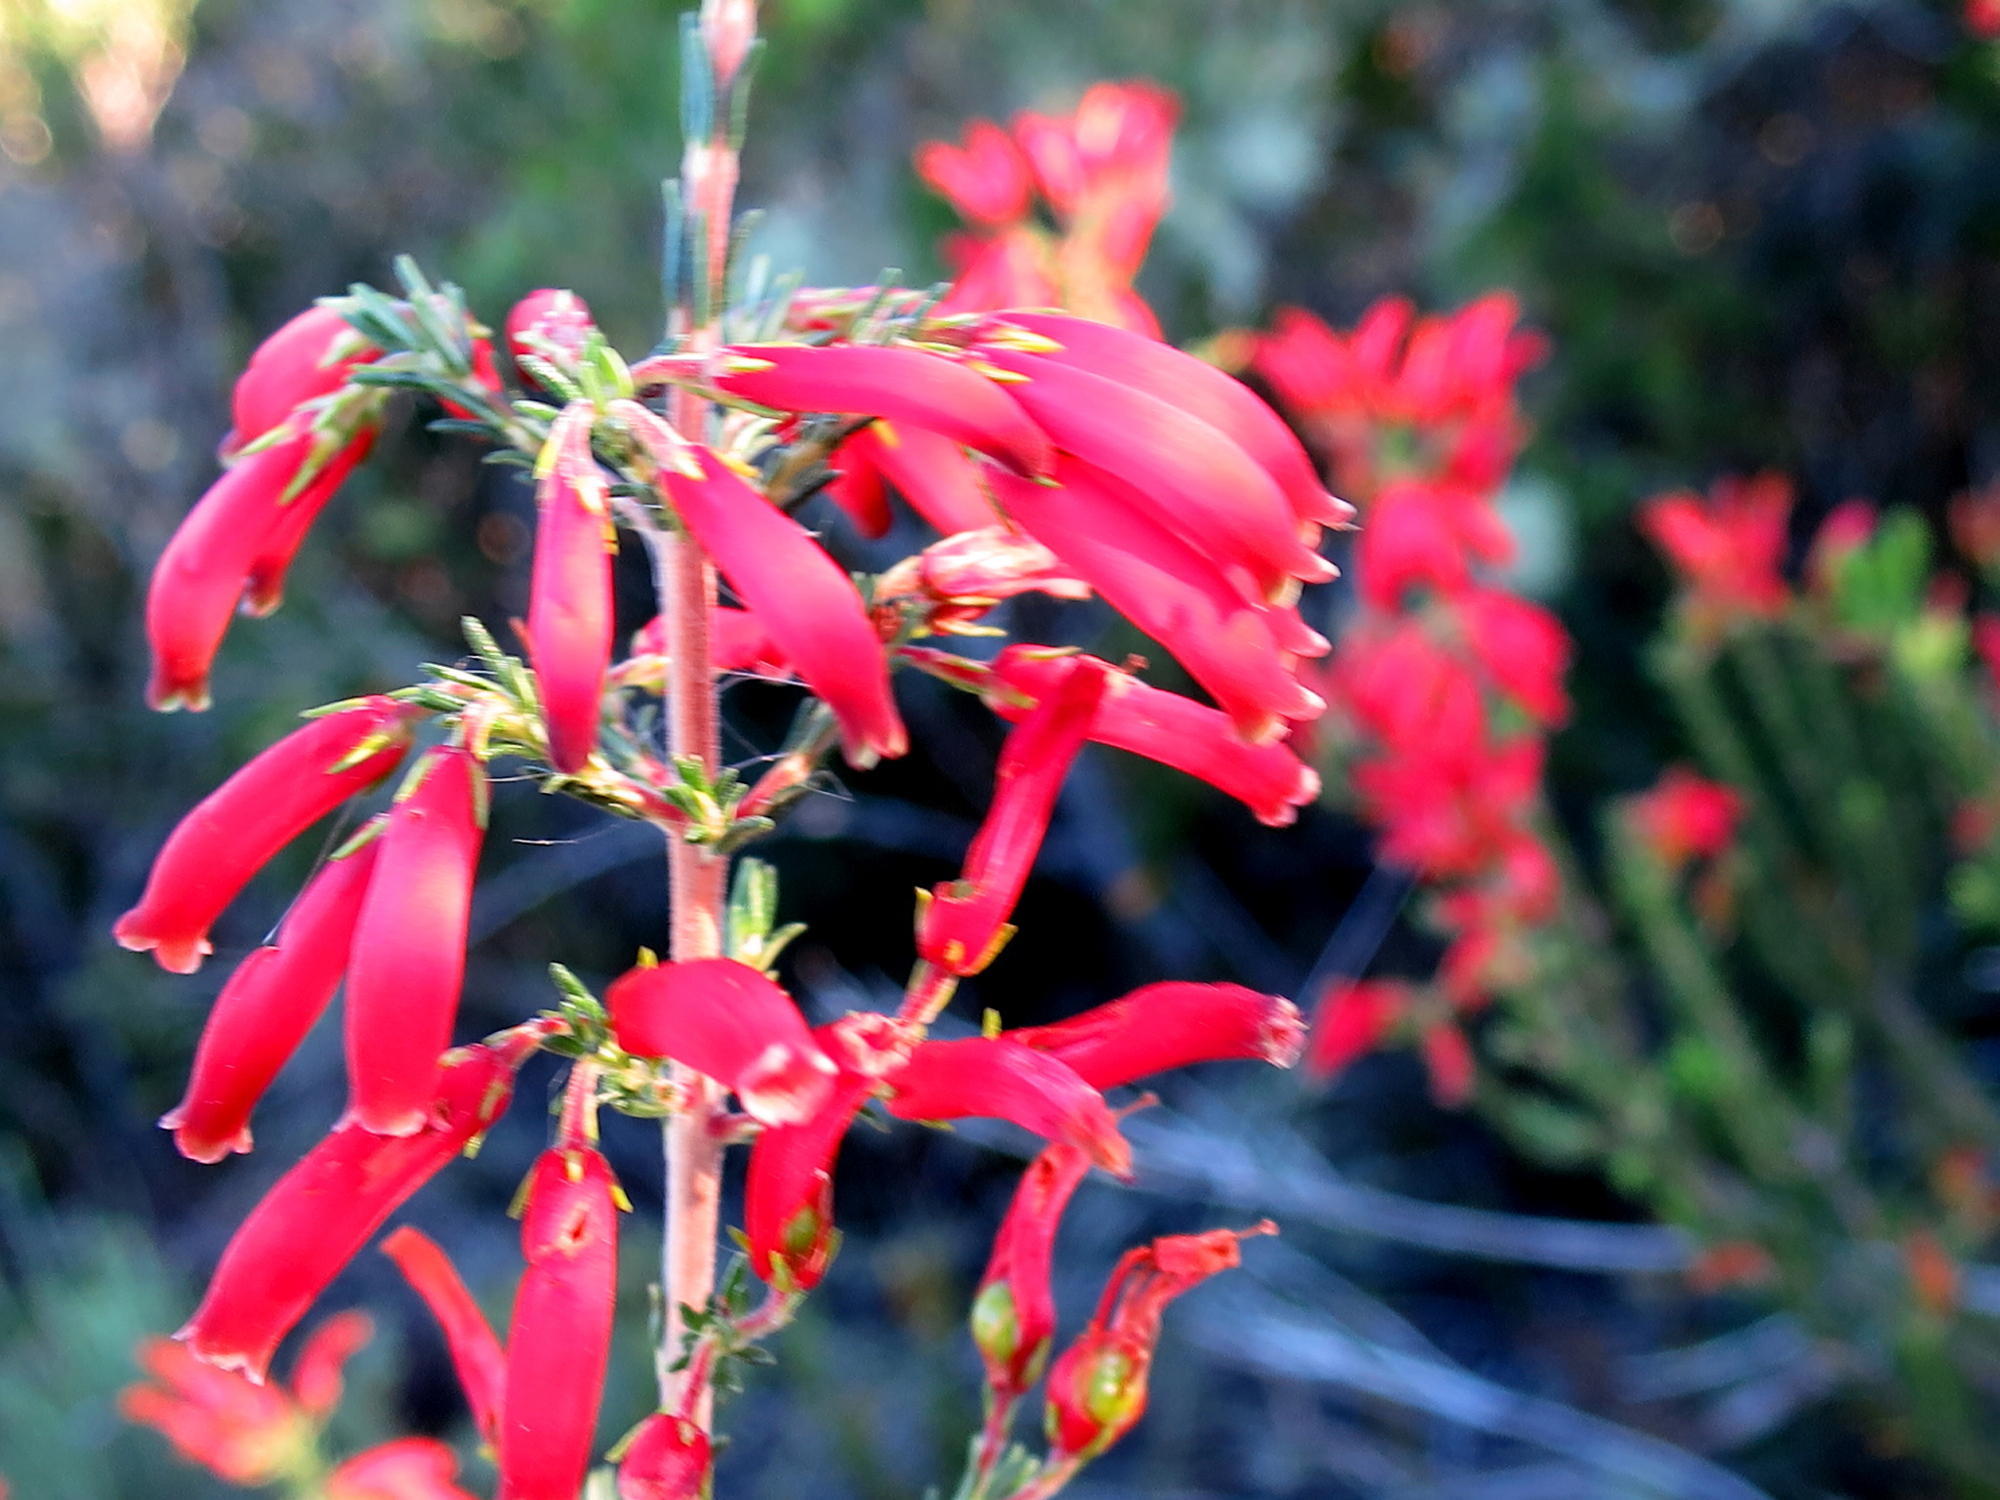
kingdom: Plantae
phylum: Tracheophyta
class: Magnoliopsida
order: Ericales
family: Ericaceae
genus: Erica
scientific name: Erica chloroloma
